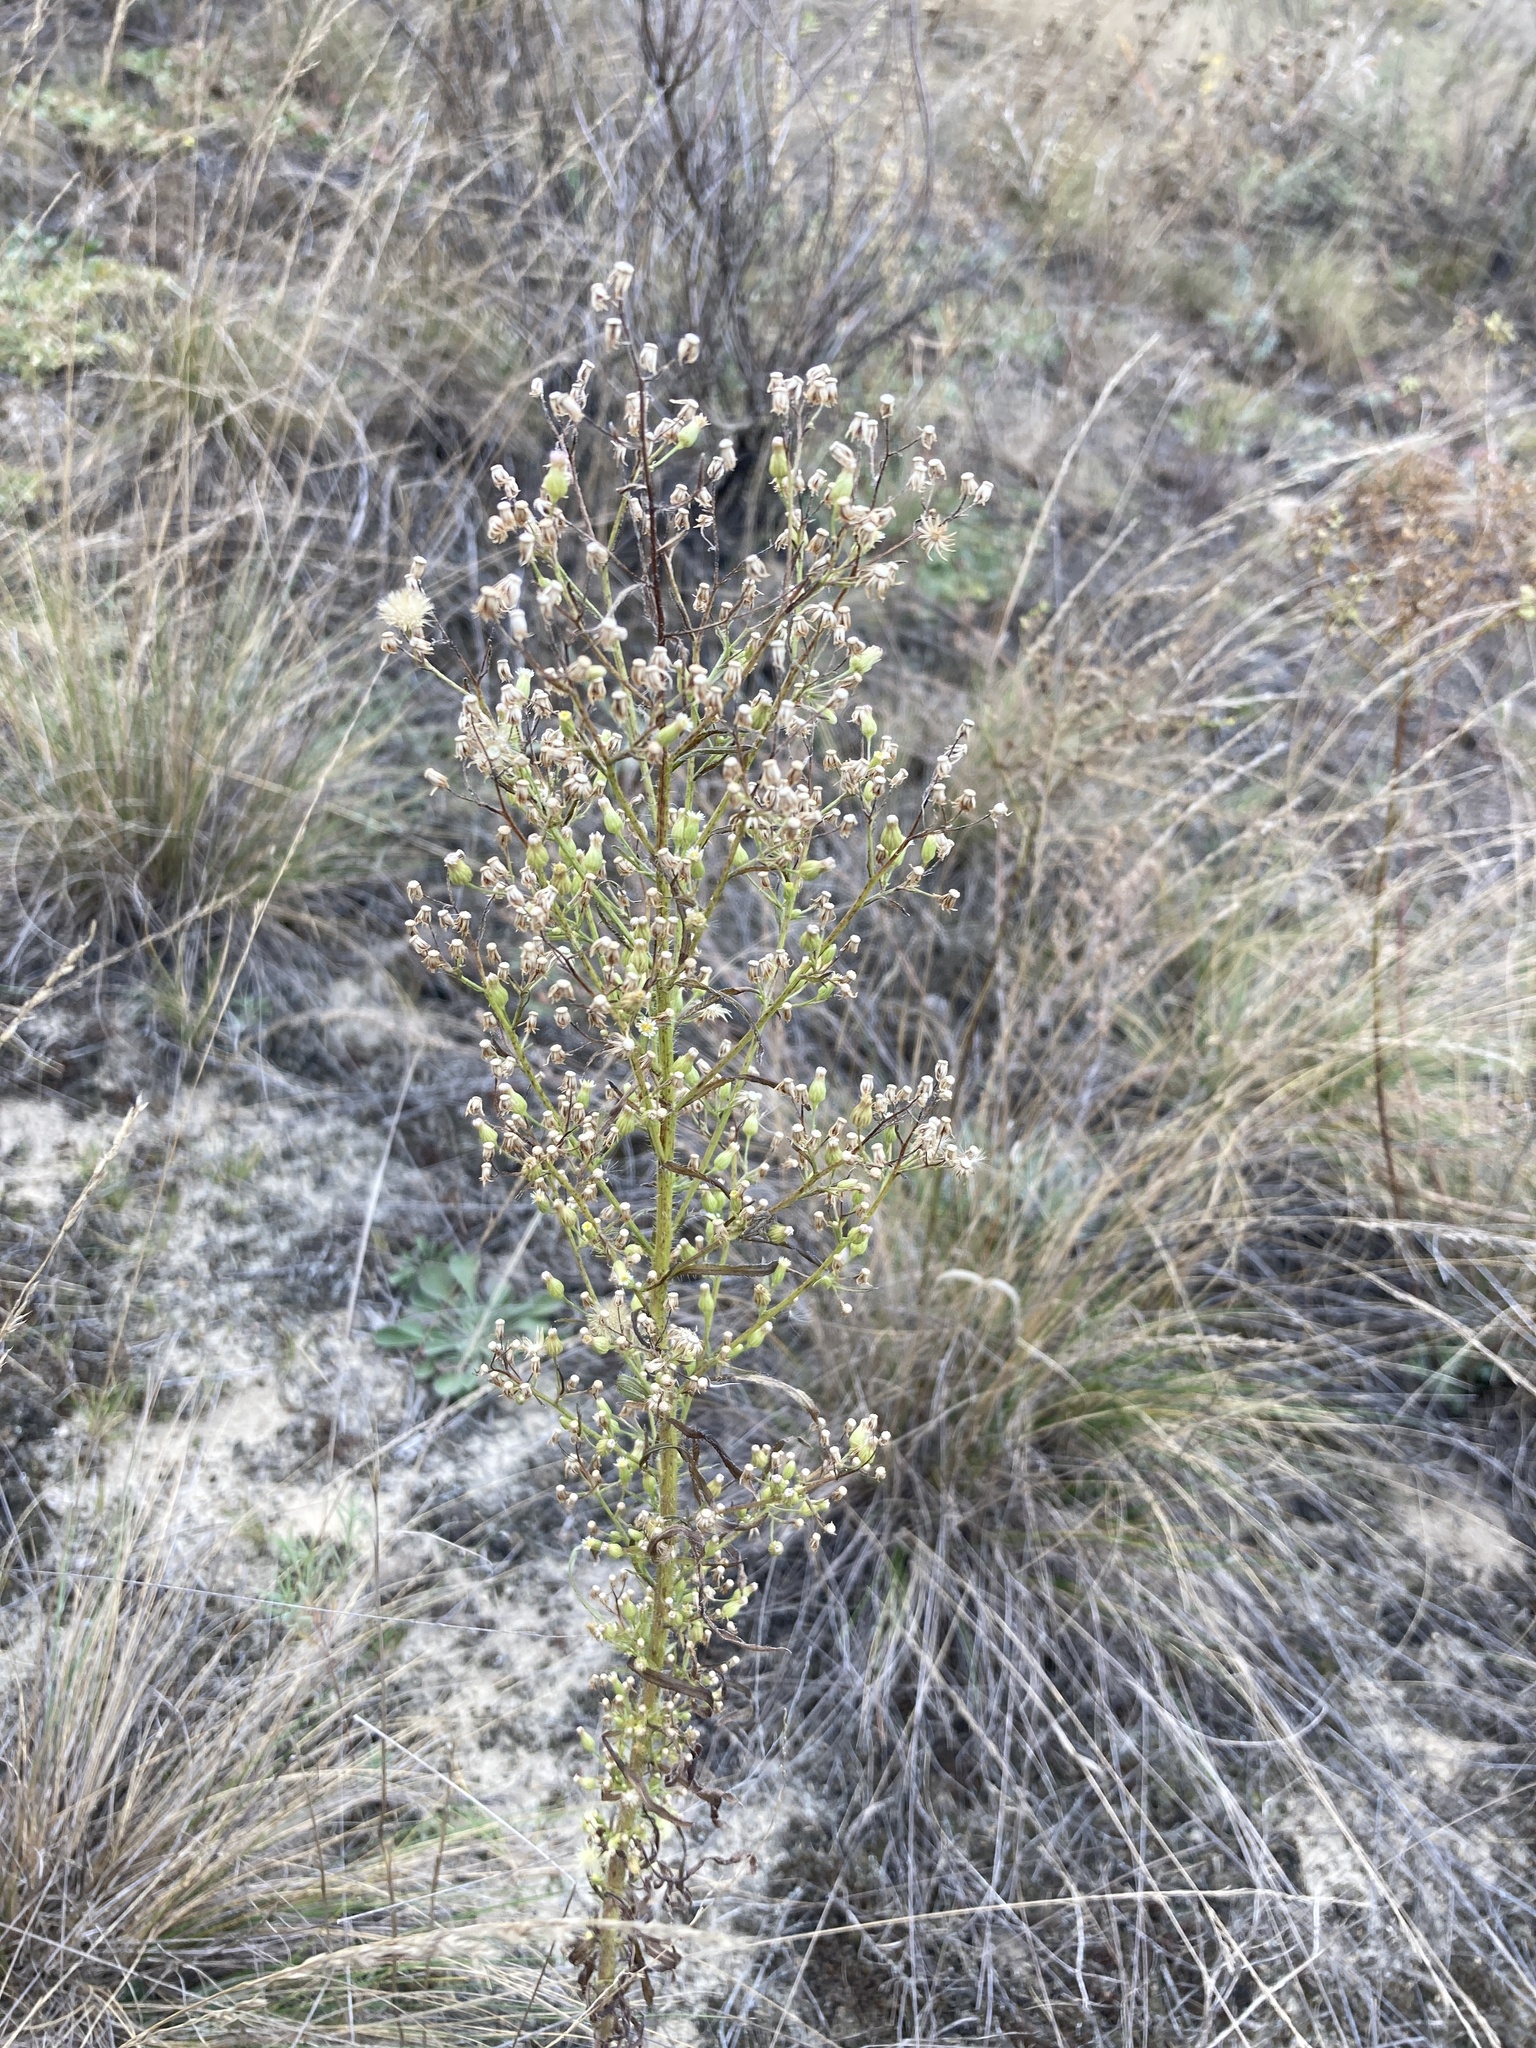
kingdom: Plantae
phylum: Tracheophyta
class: Magnoliopsida
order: Asterales
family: Asteraceae
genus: Erigeron
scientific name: Erigeron canadensis
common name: Canadian fleabane
